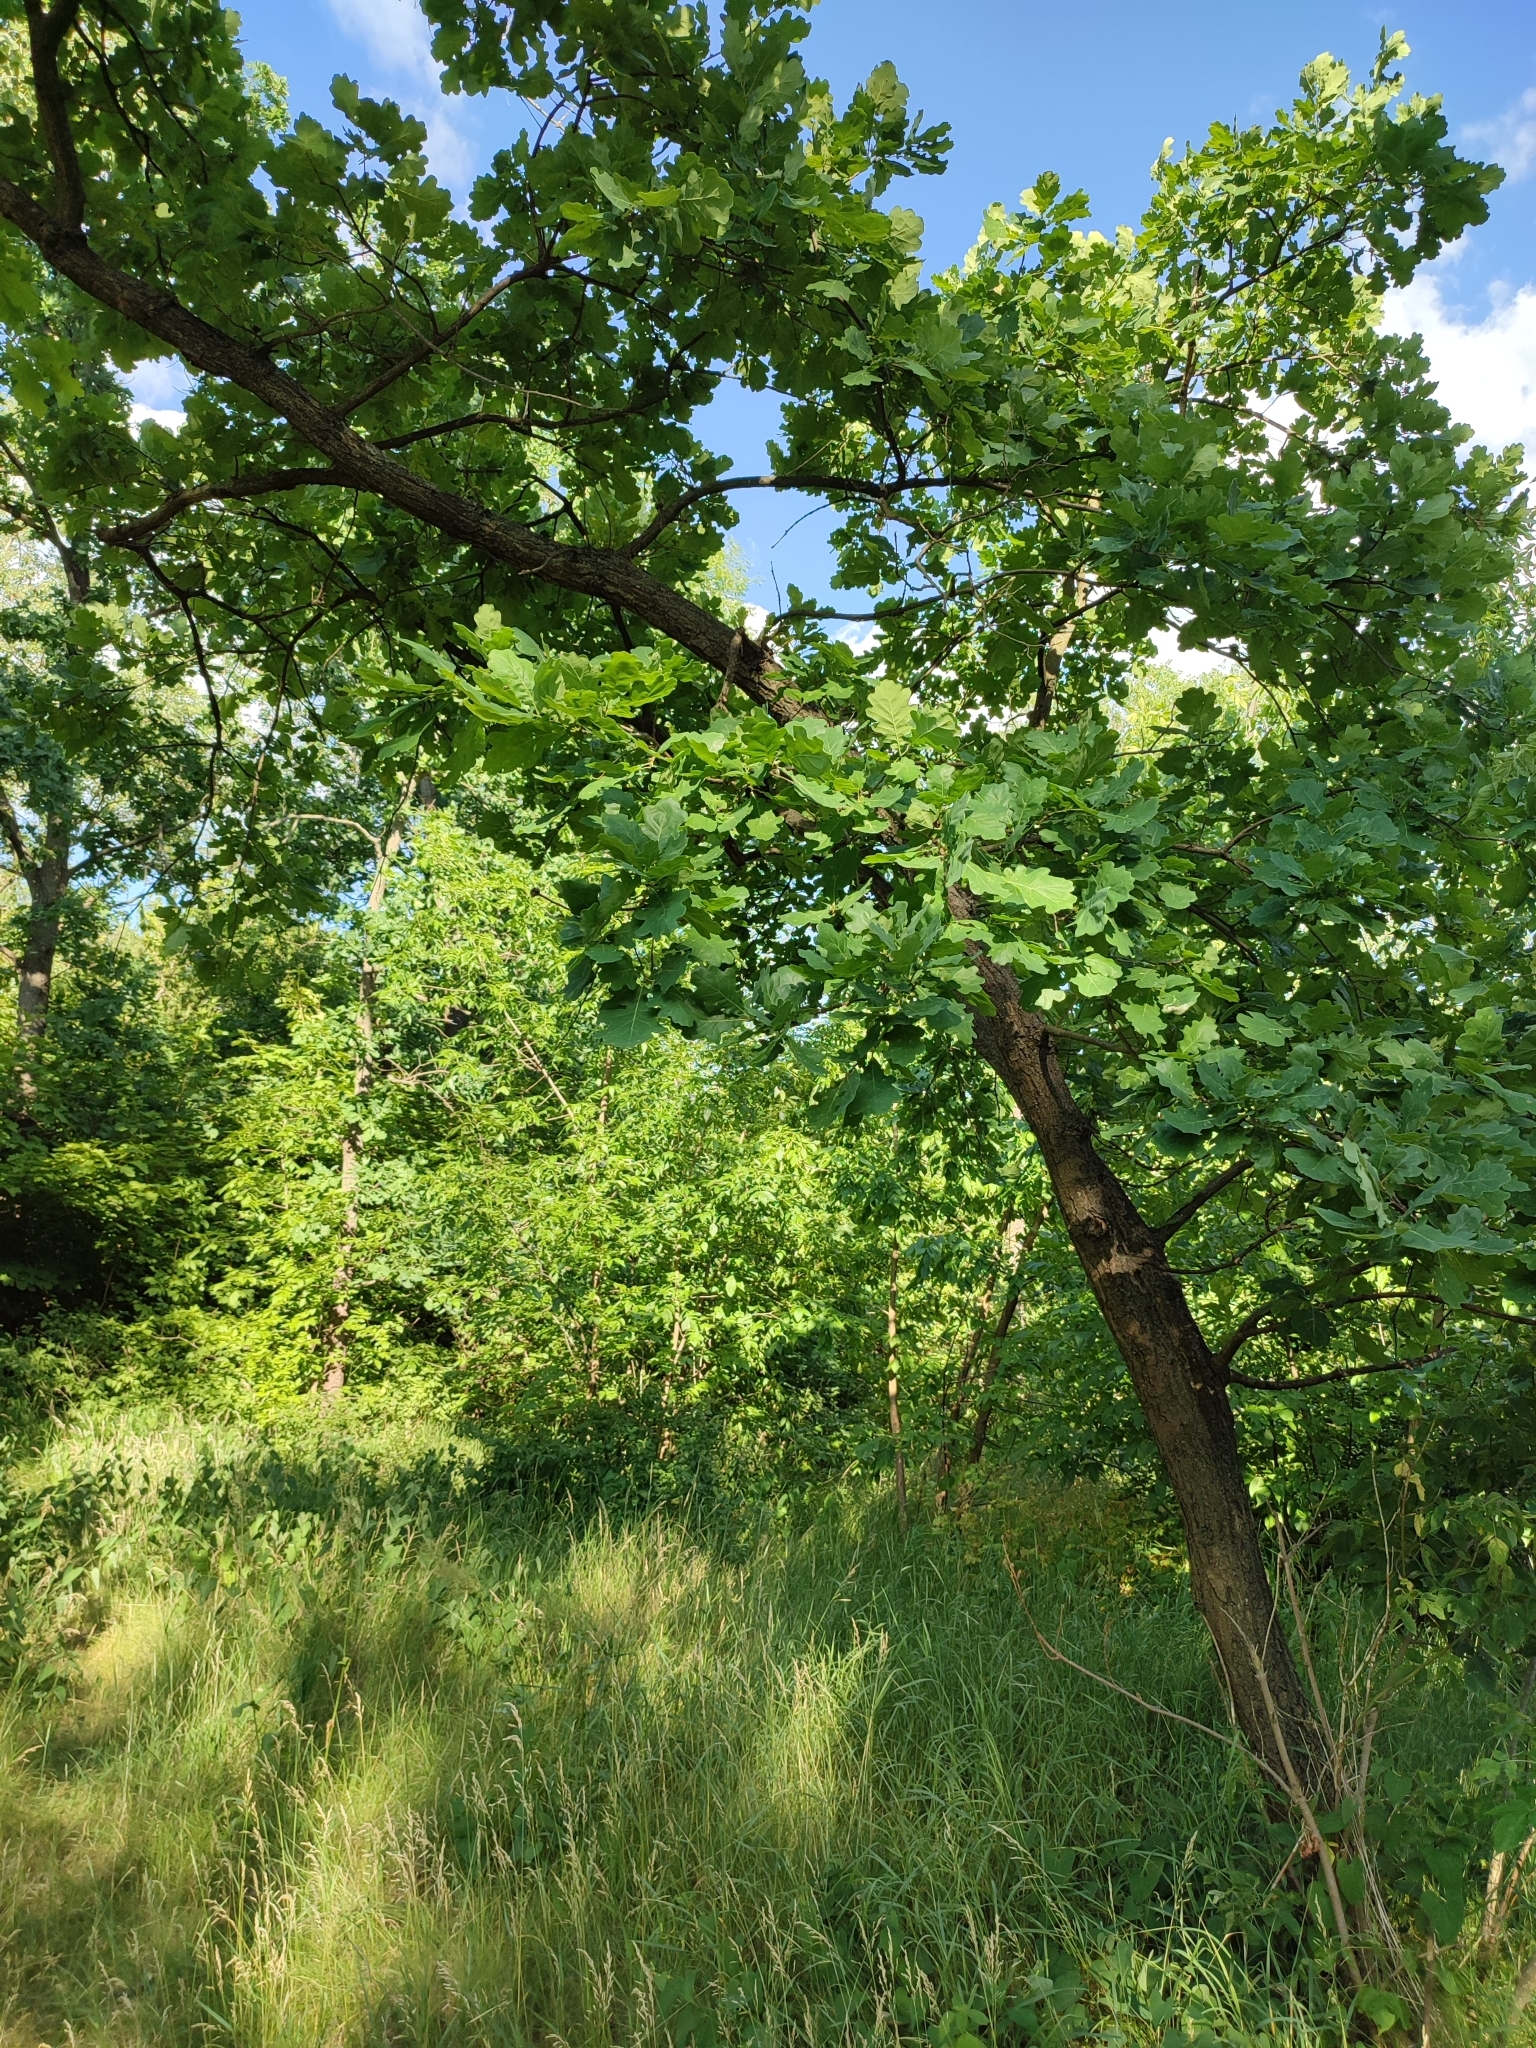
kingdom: Plantae
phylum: Tracheophyta
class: Magnoliopsida
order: Fagales
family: Fagaceae
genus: Quercus
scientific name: Quercus robur
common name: Pedunculate oak
